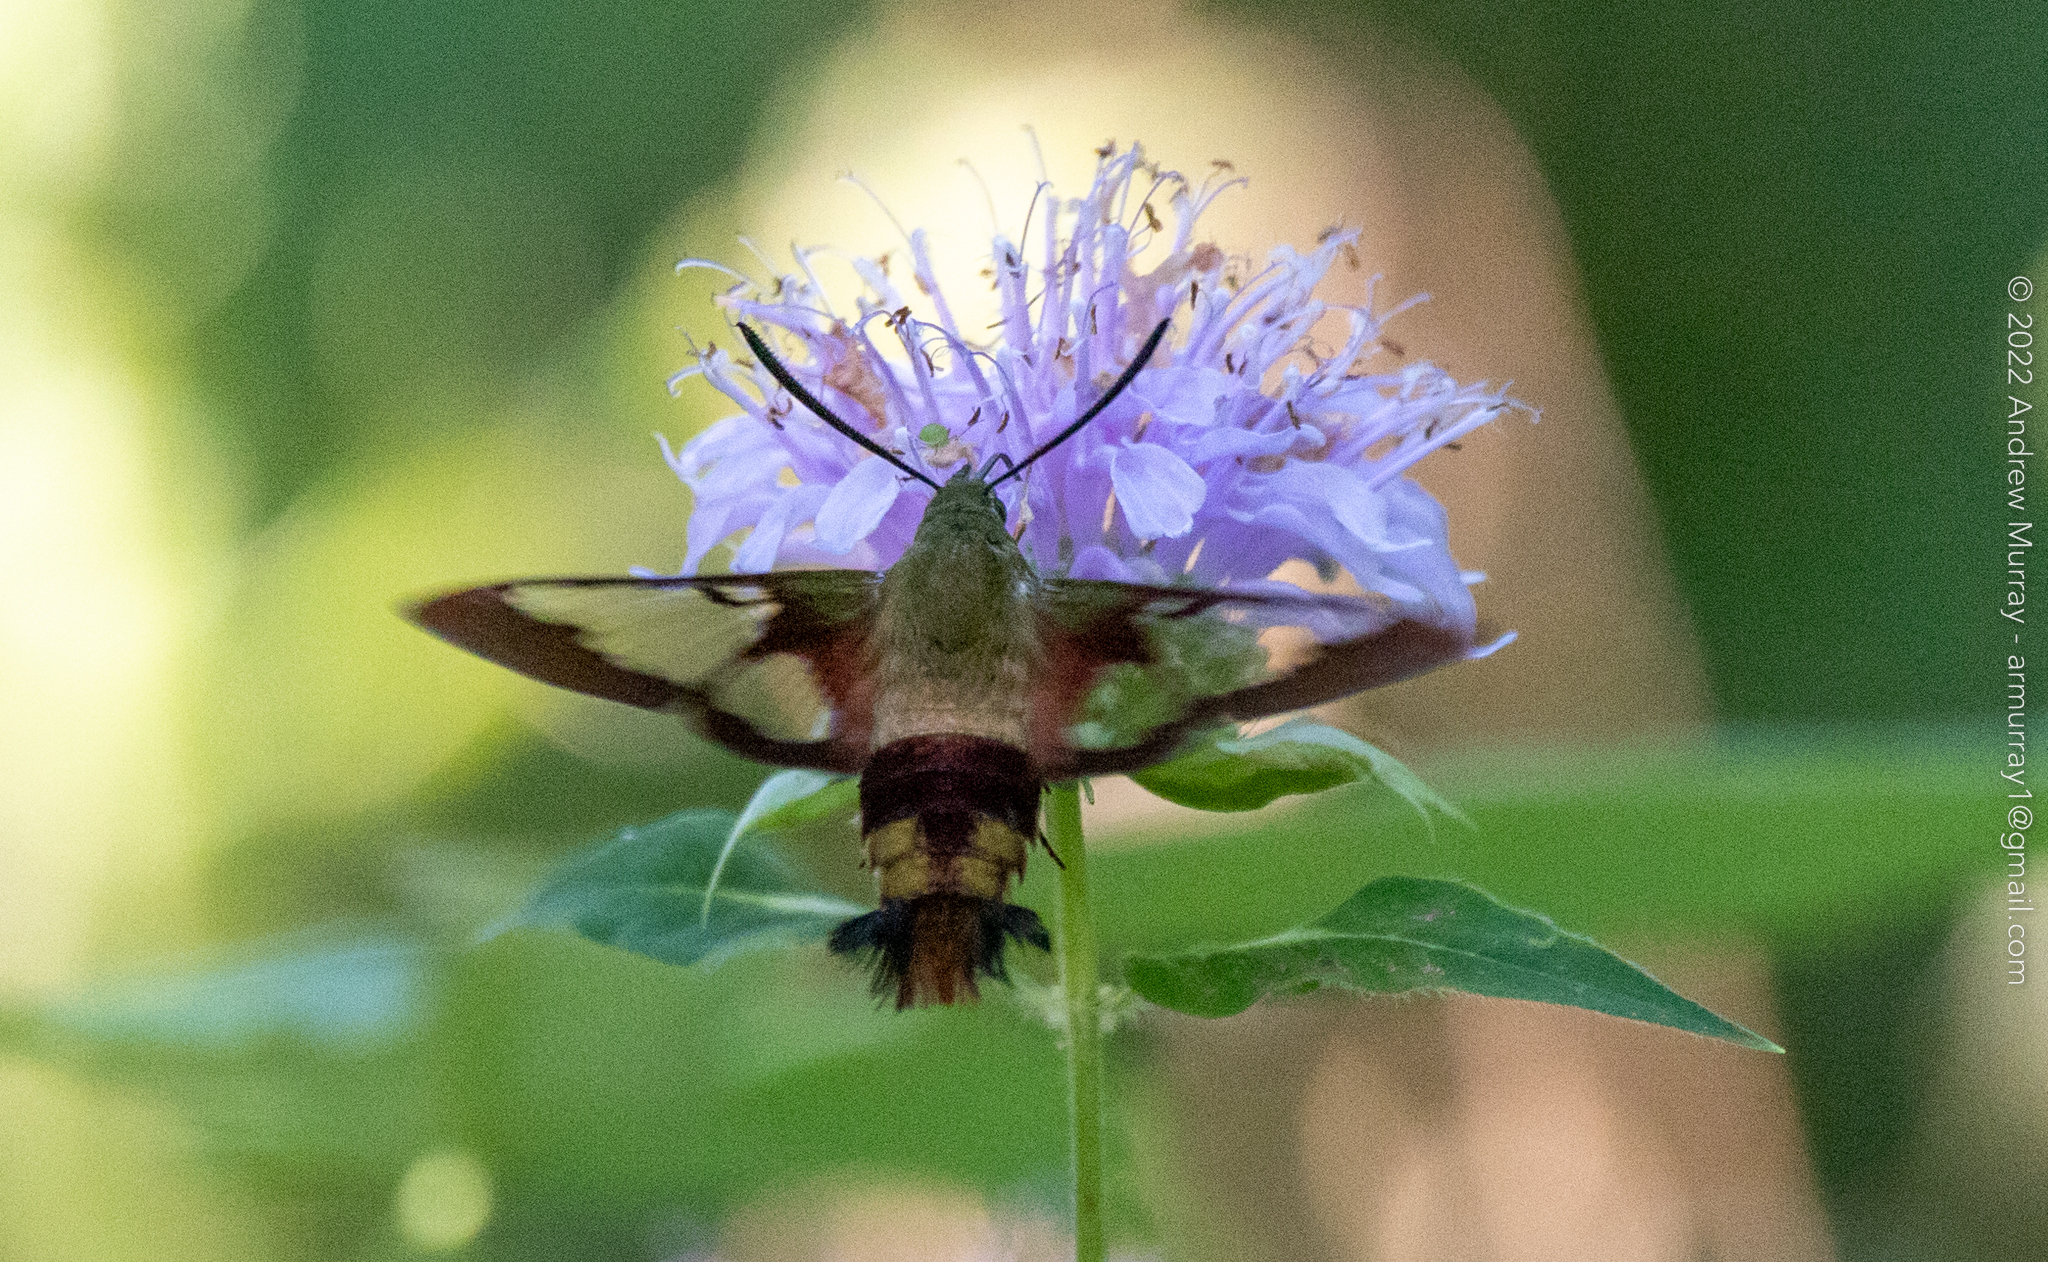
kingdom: Animalia
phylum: Arthropoda
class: Insecta
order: Lepidoptera
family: Sphingidae
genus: Hemaris
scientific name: Hemaris thysbe
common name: Common clear-wing
